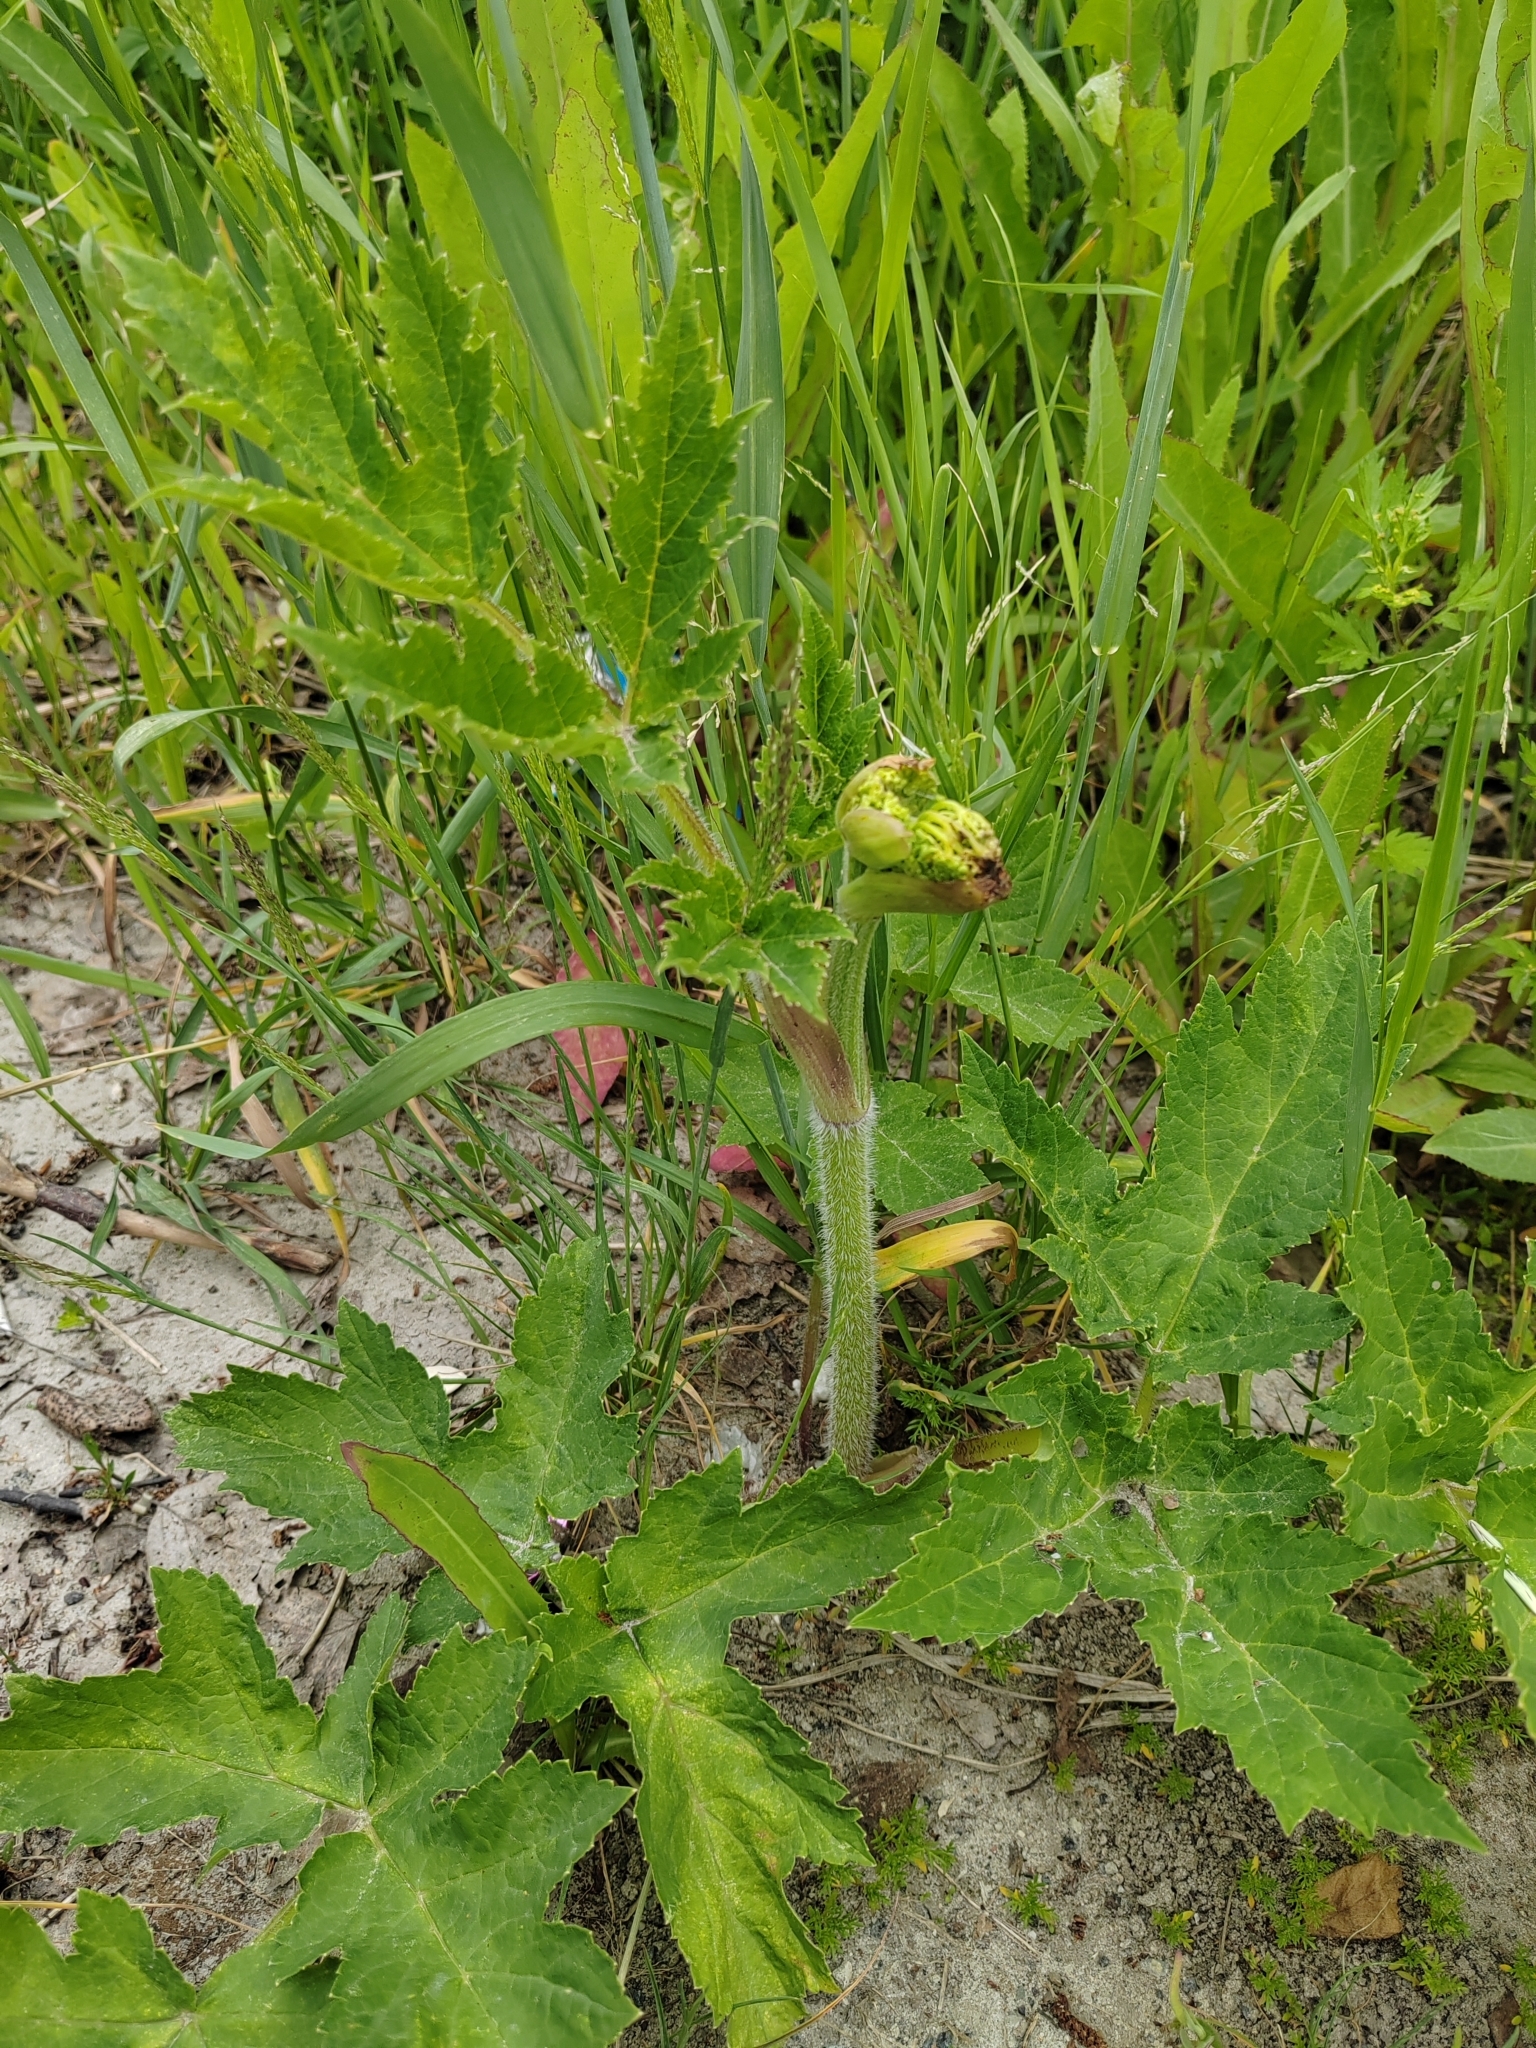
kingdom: Plantae
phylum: Tracheophyta
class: Magnoliopsida
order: Apiales
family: Apiaceae
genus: Heracleum
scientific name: Heracleum sphondylium
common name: Hogweed
